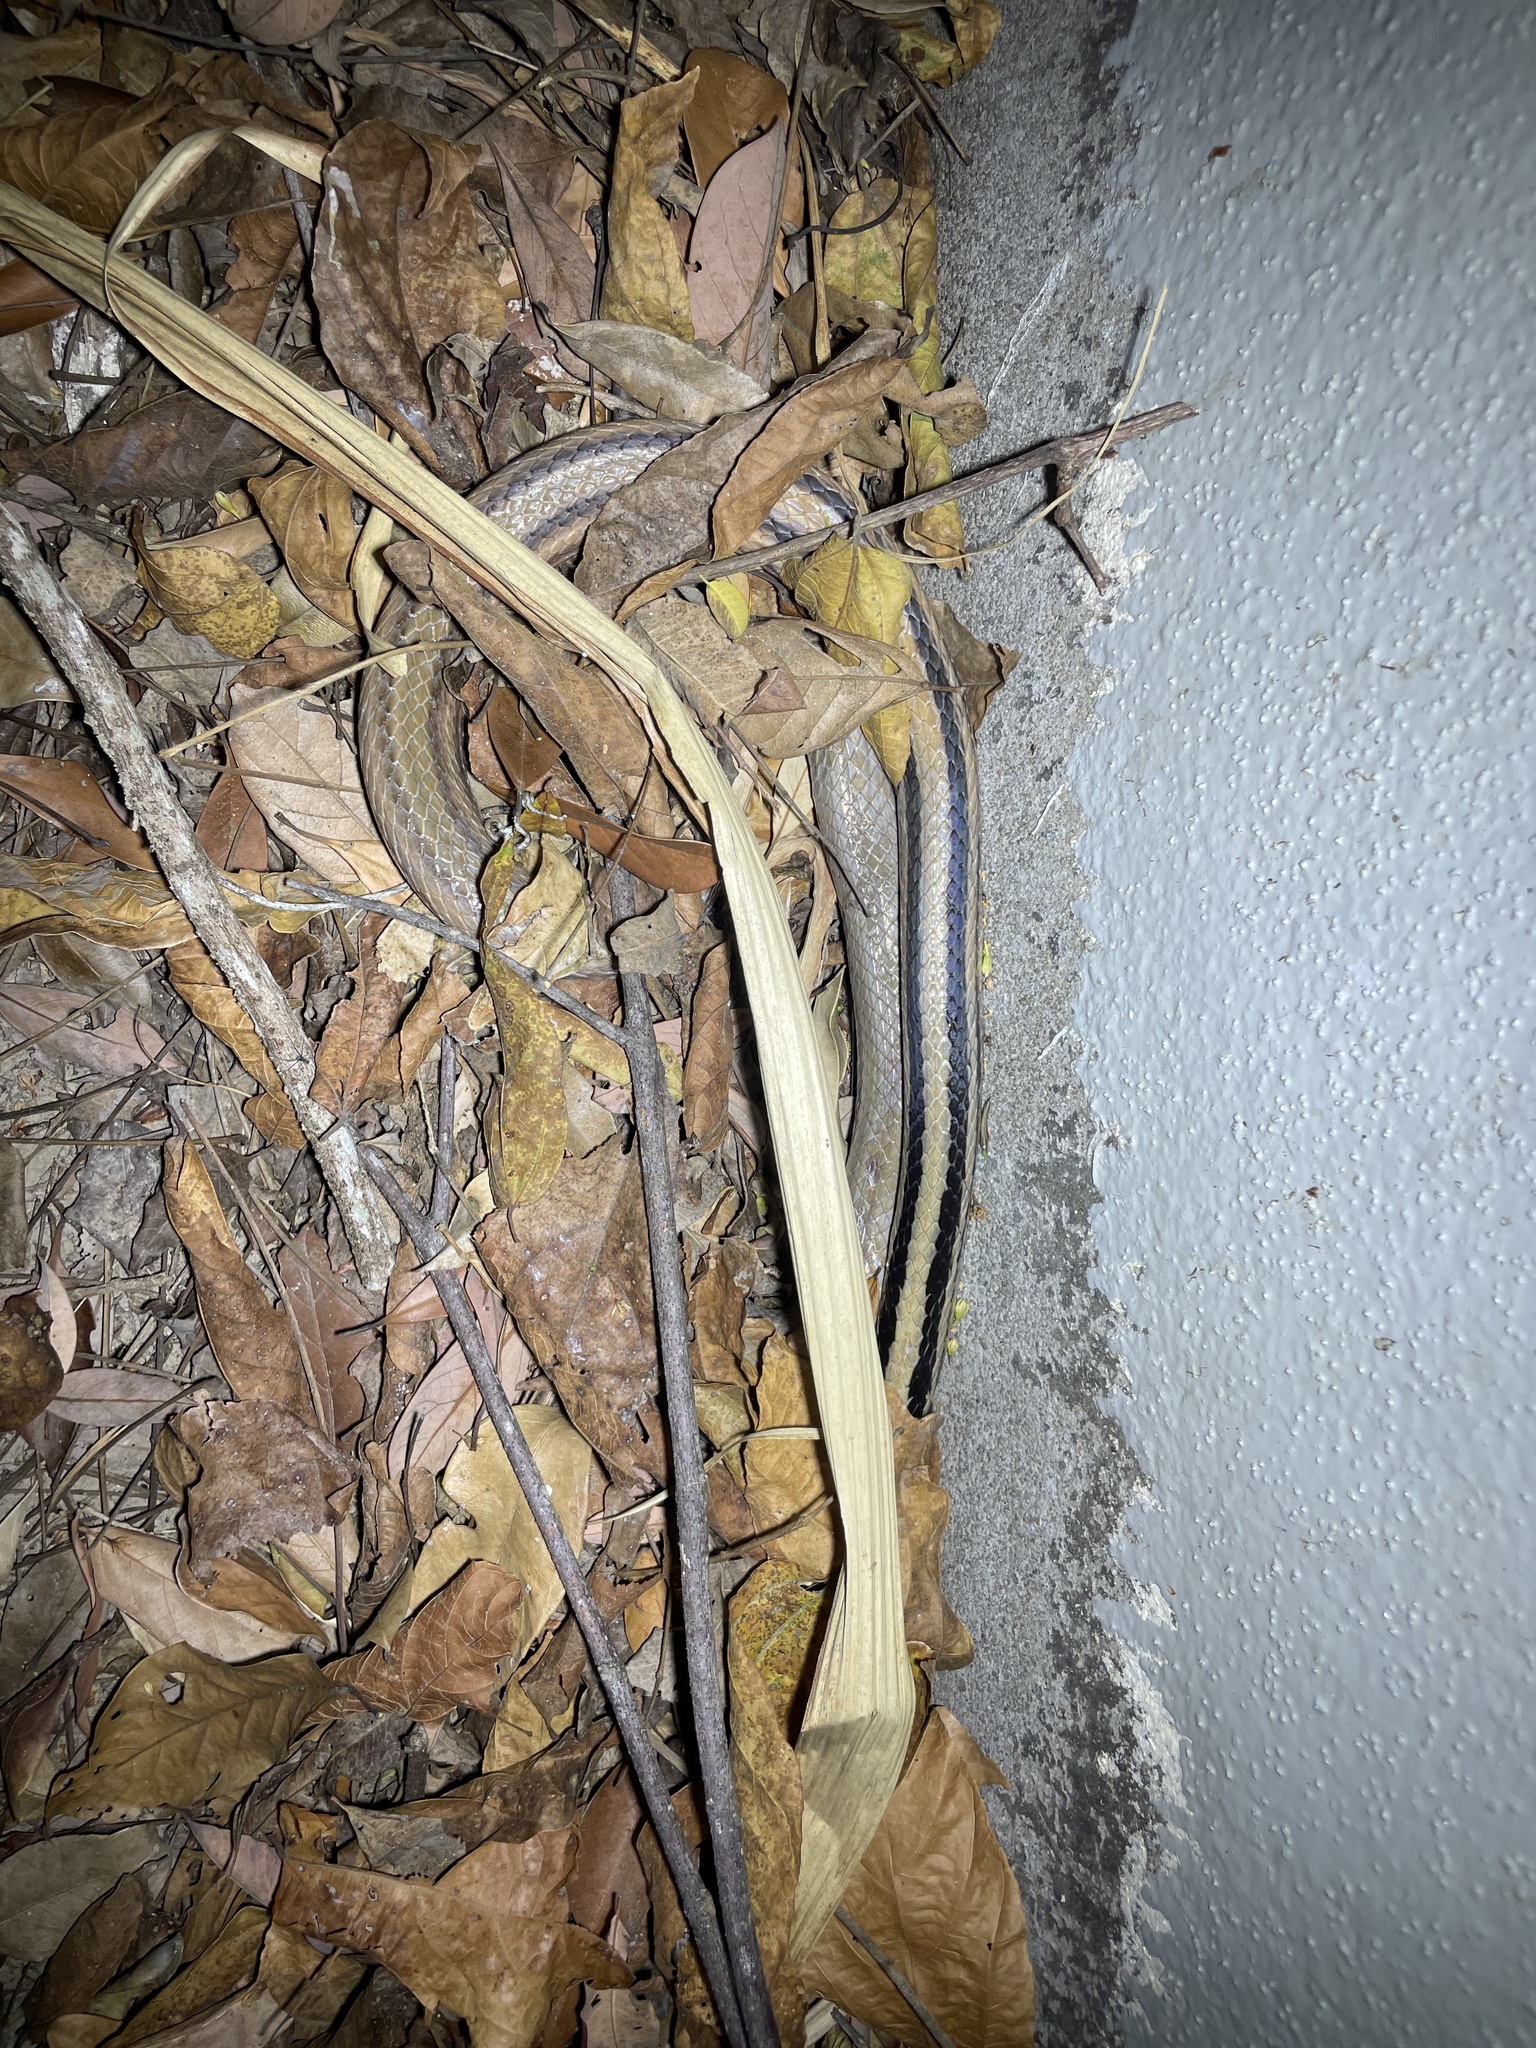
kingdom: Animalia
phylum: Chordata
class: Squamata
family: Colubridae
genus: Coelognathus
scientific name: Coelognathus radiatus
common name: Copperhead rat snake
